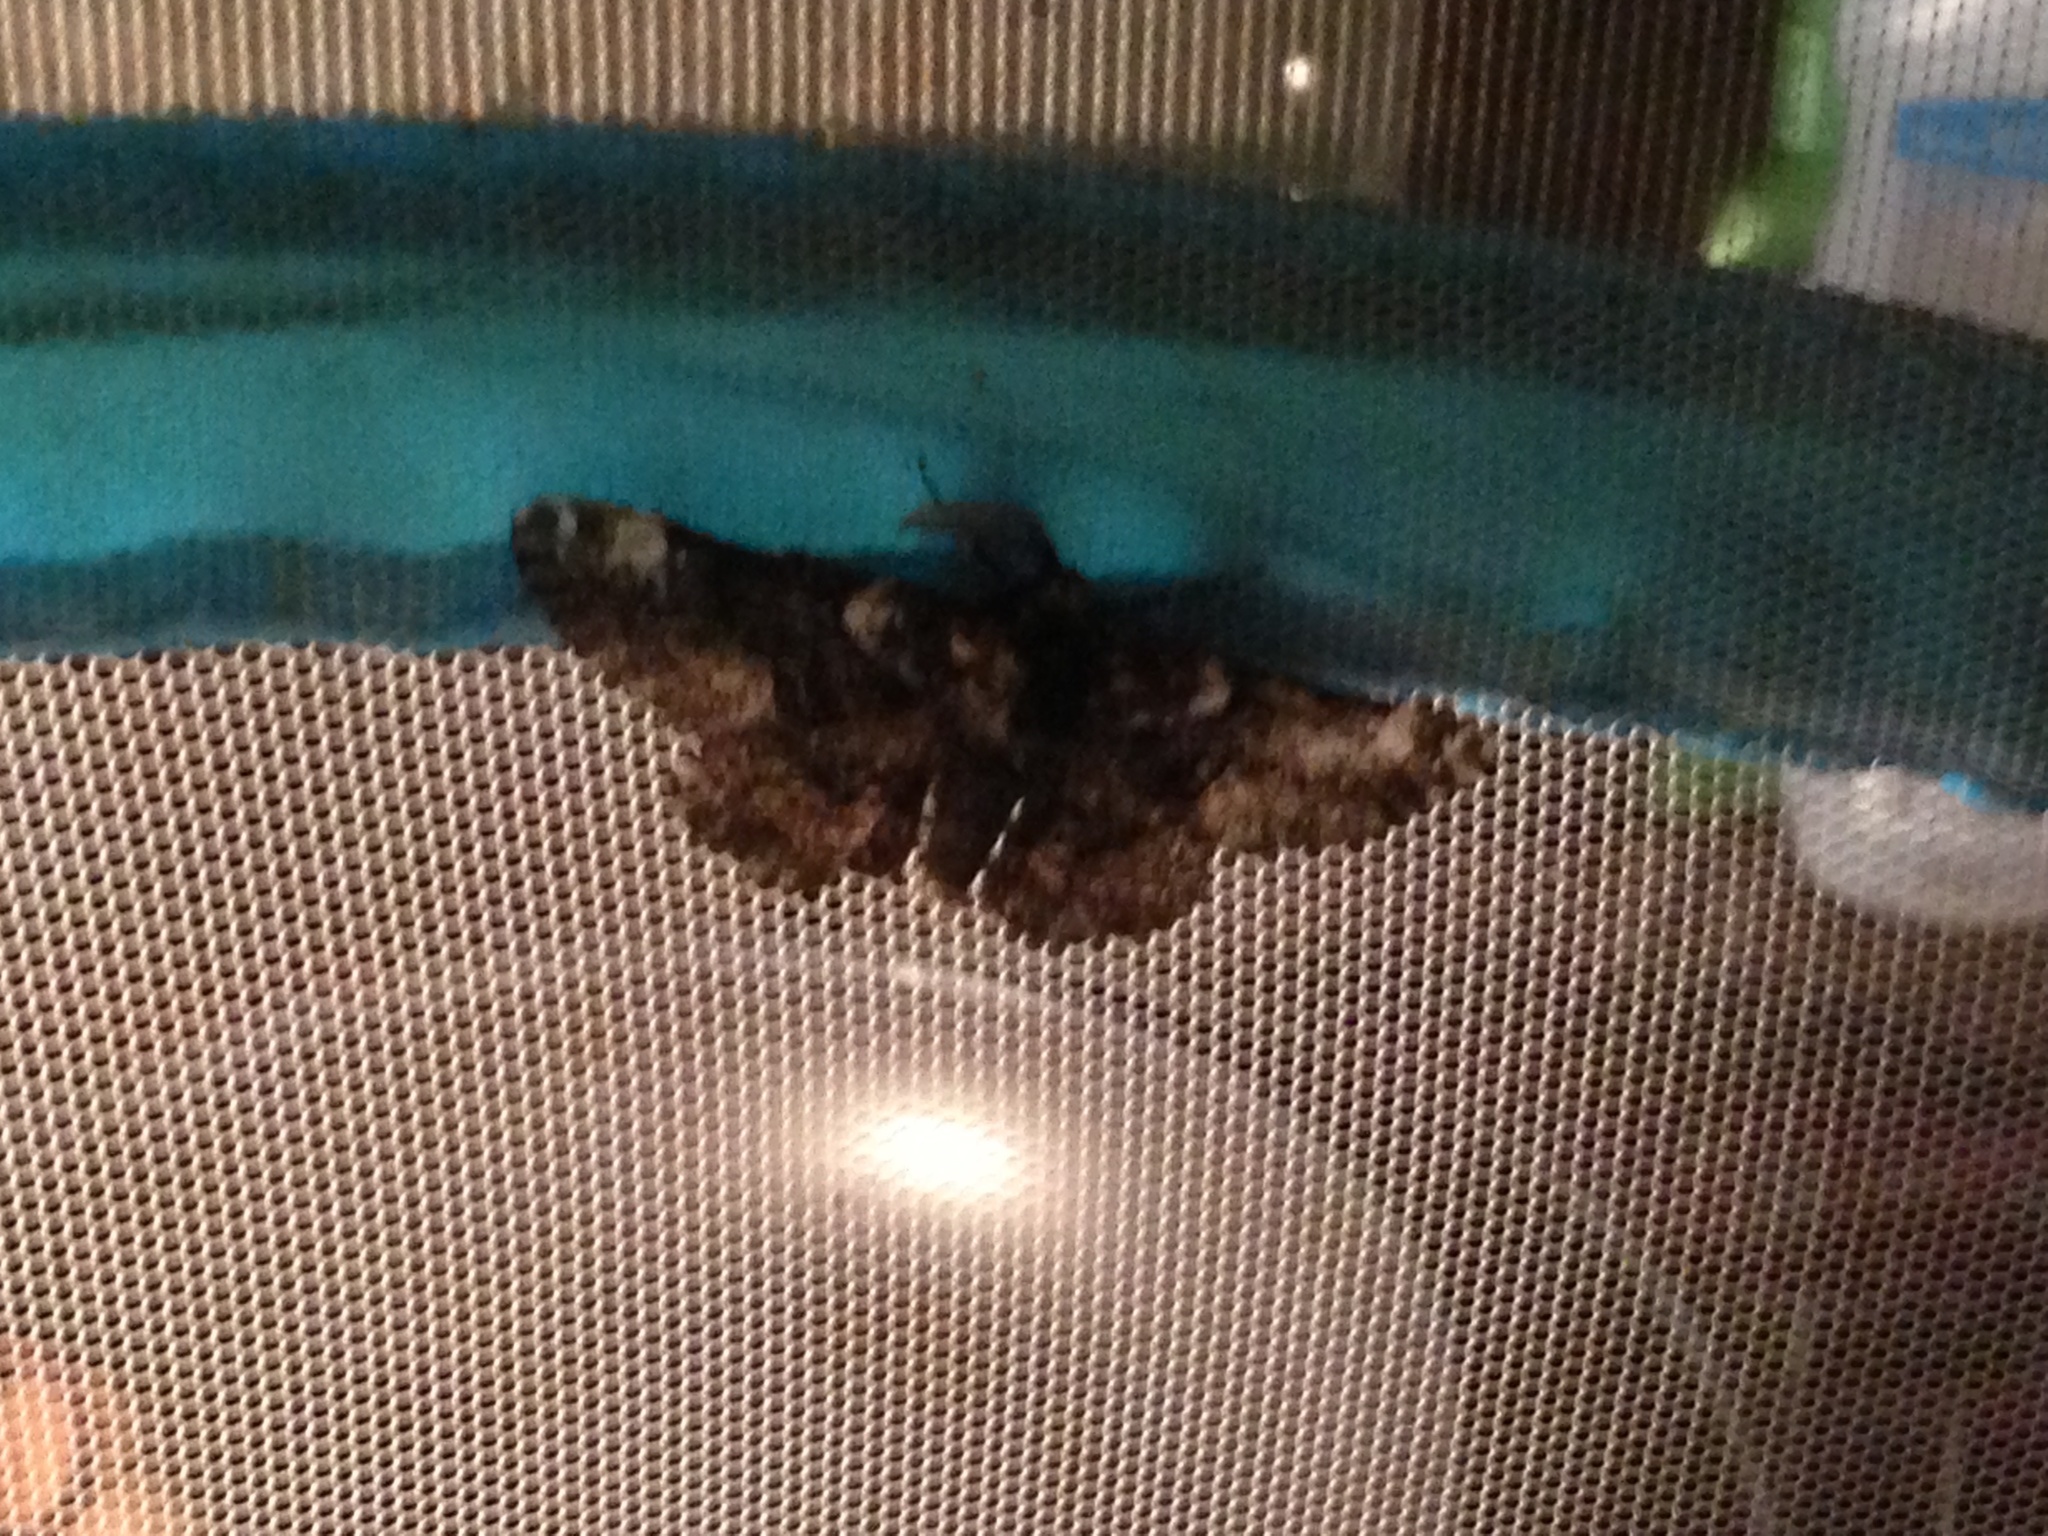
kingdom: Animalia
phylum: Arthropoda
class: Insecta
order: Lepidoptera
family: Geometridae
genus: Phaeoura
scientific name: Phaeoura quernaria
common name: Oak beauty
